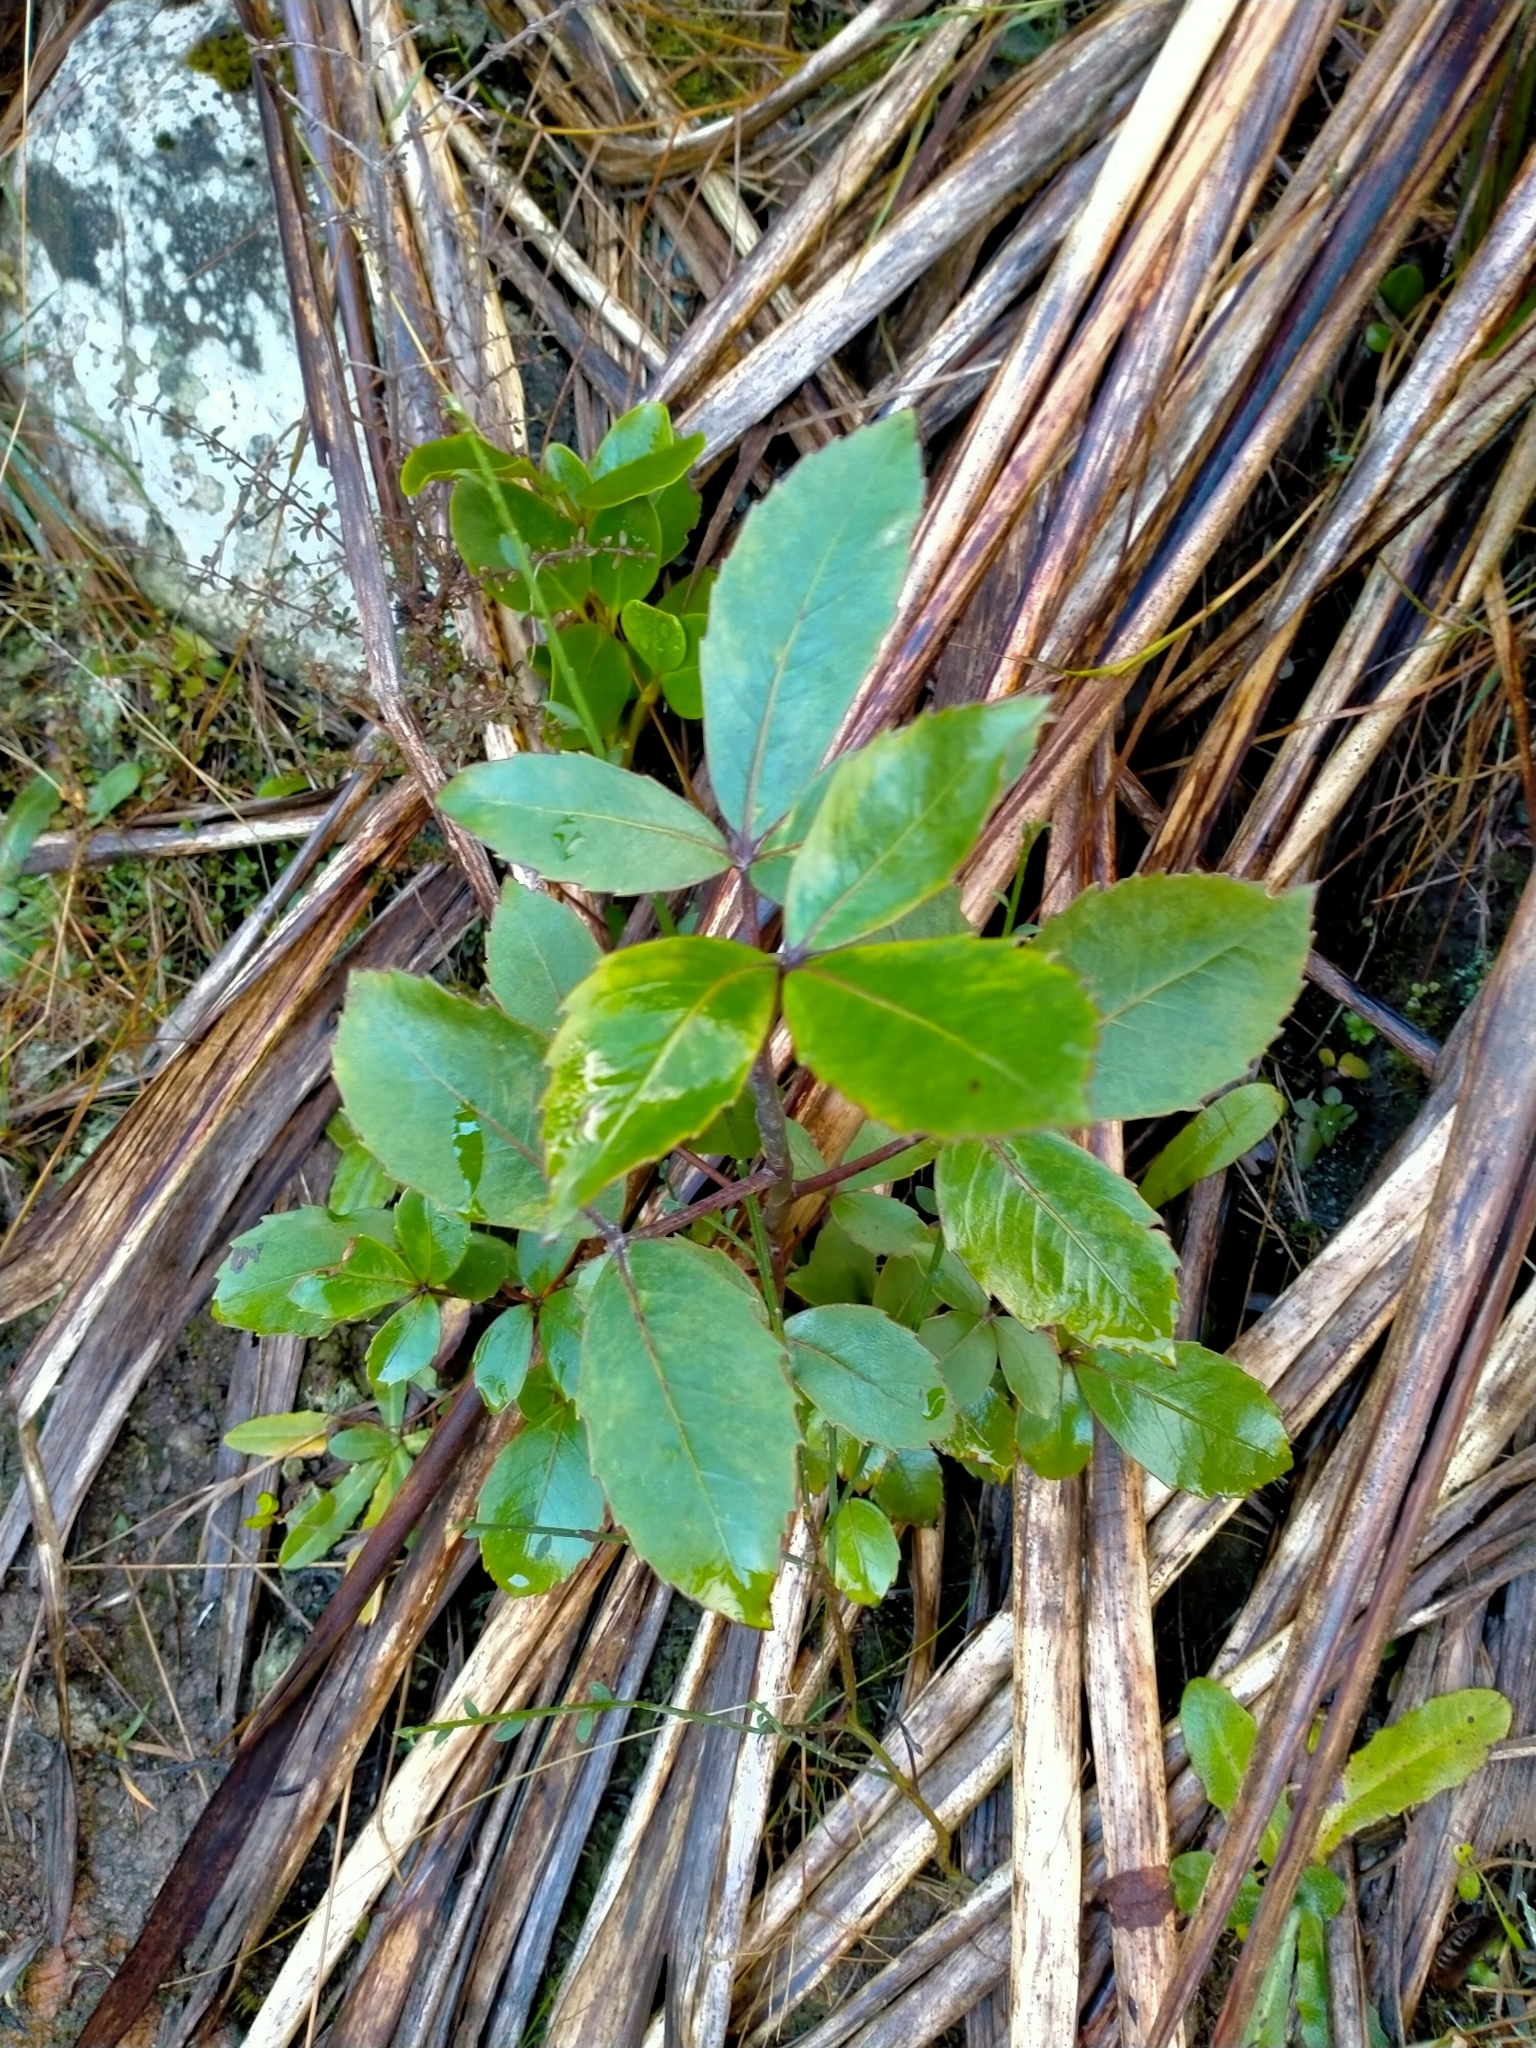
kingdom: Plantae
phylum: Tracheophyta
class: Magnoliopsida
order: Apiales
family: Araliaceae
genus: Neopanax
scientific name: Neopanax colensoi
